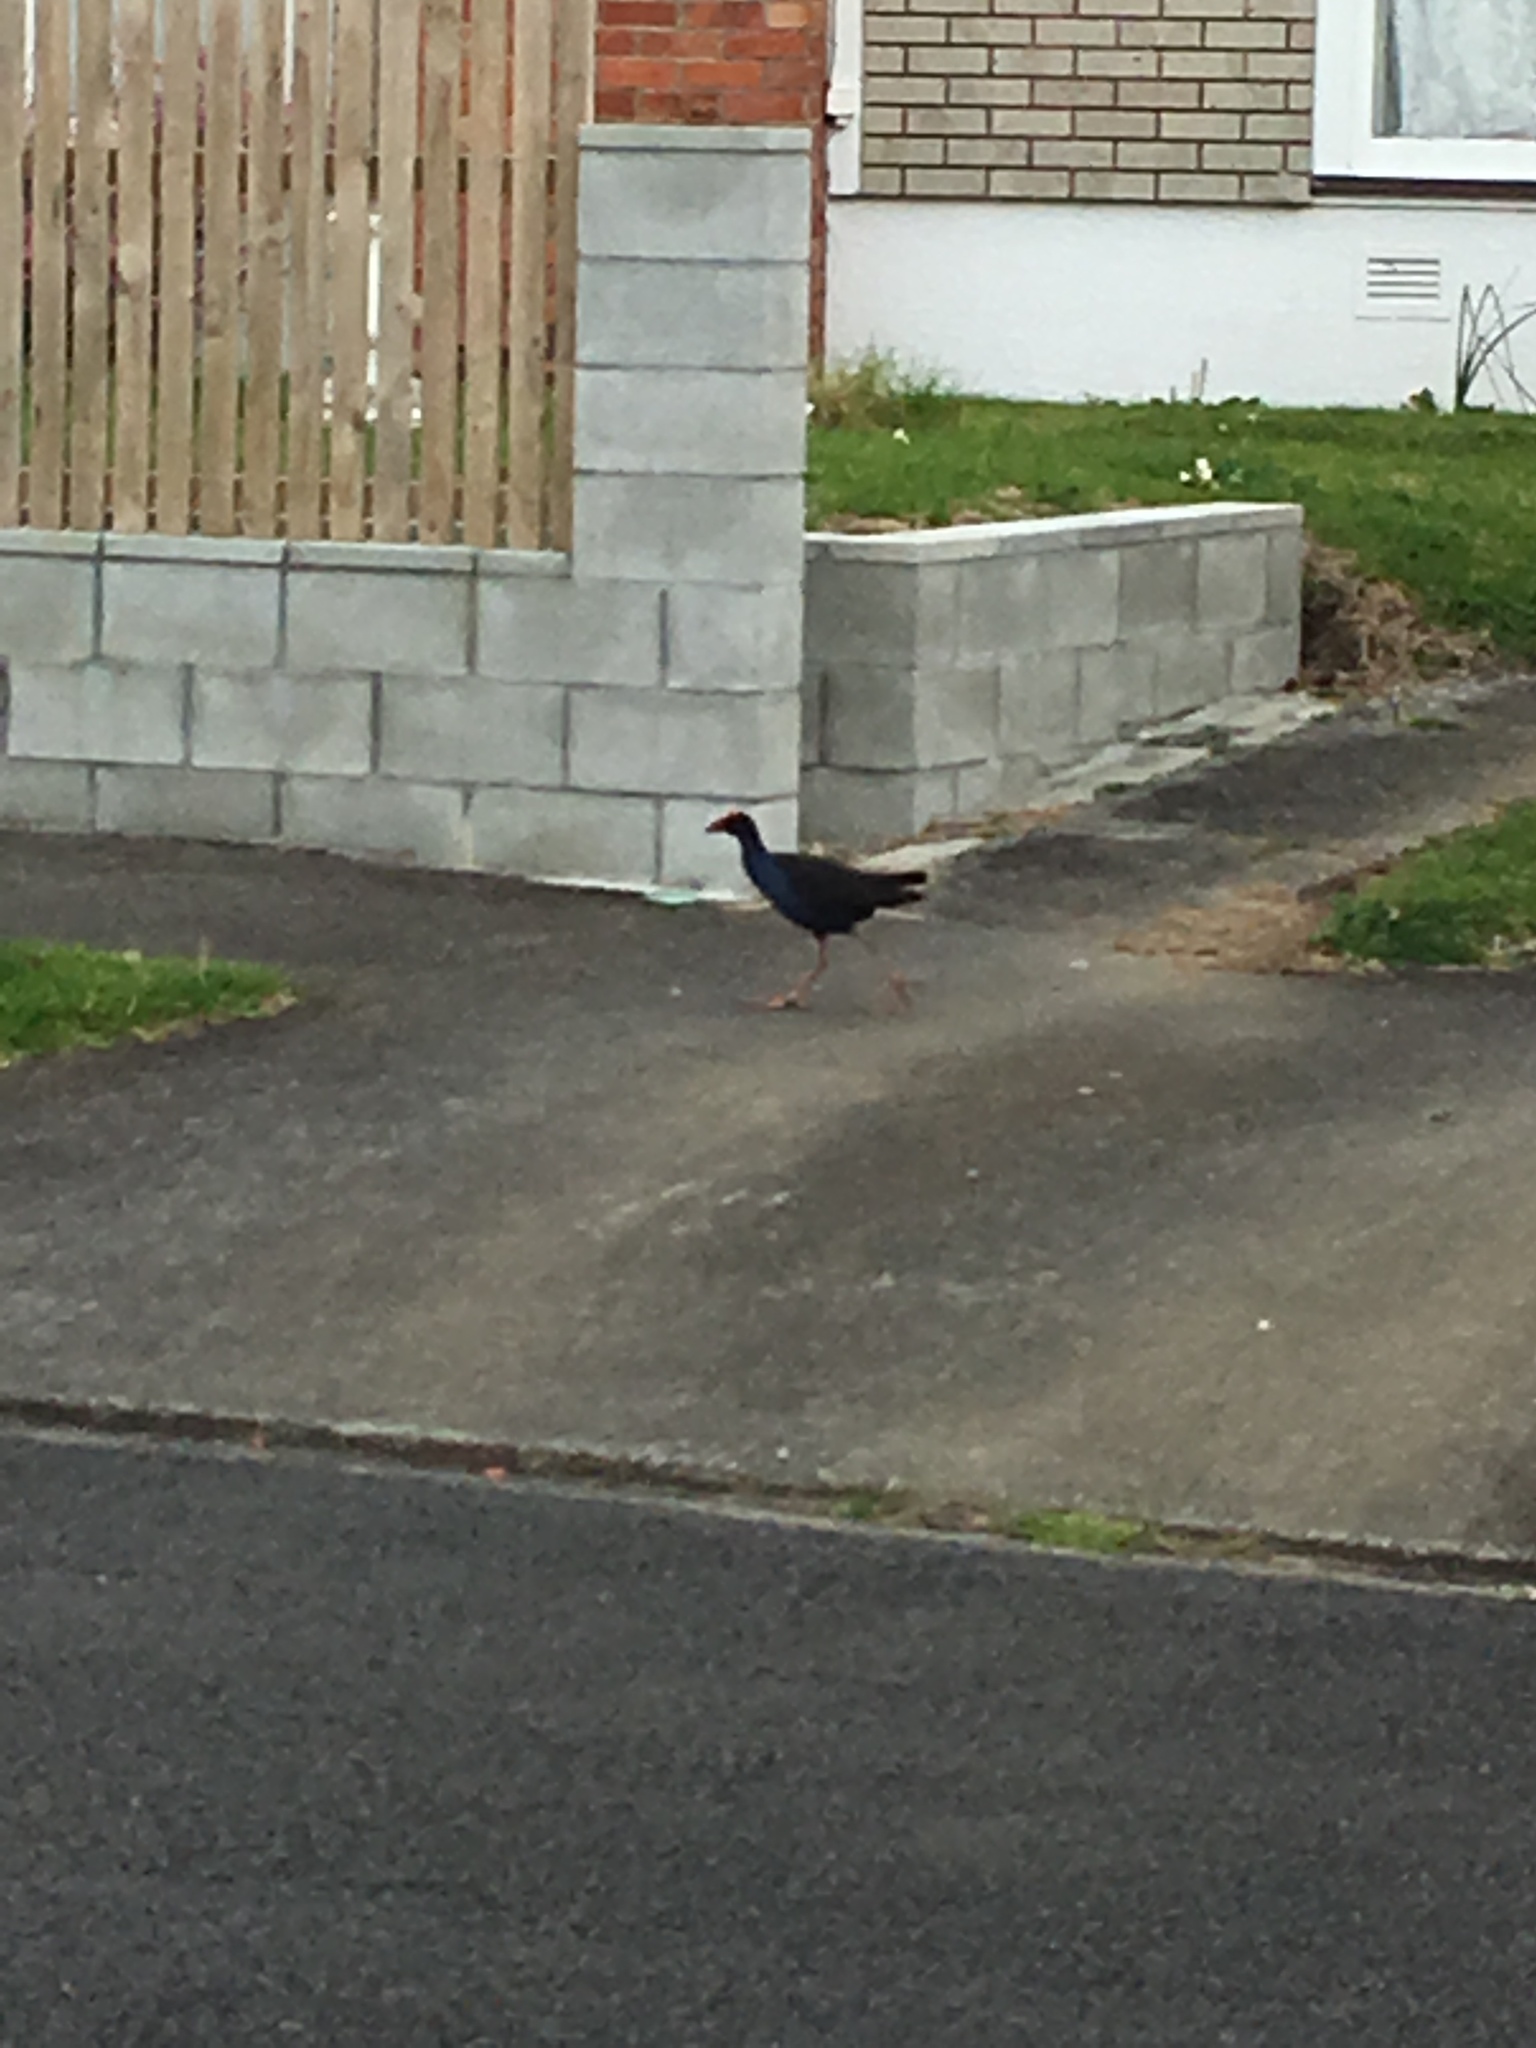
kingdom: Animalia
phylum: Chordata
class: Aves
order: Gruiformes
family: Rallidae
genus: Porphyrio
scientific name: Porphyrio melanotus
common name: Australasian swamphen
